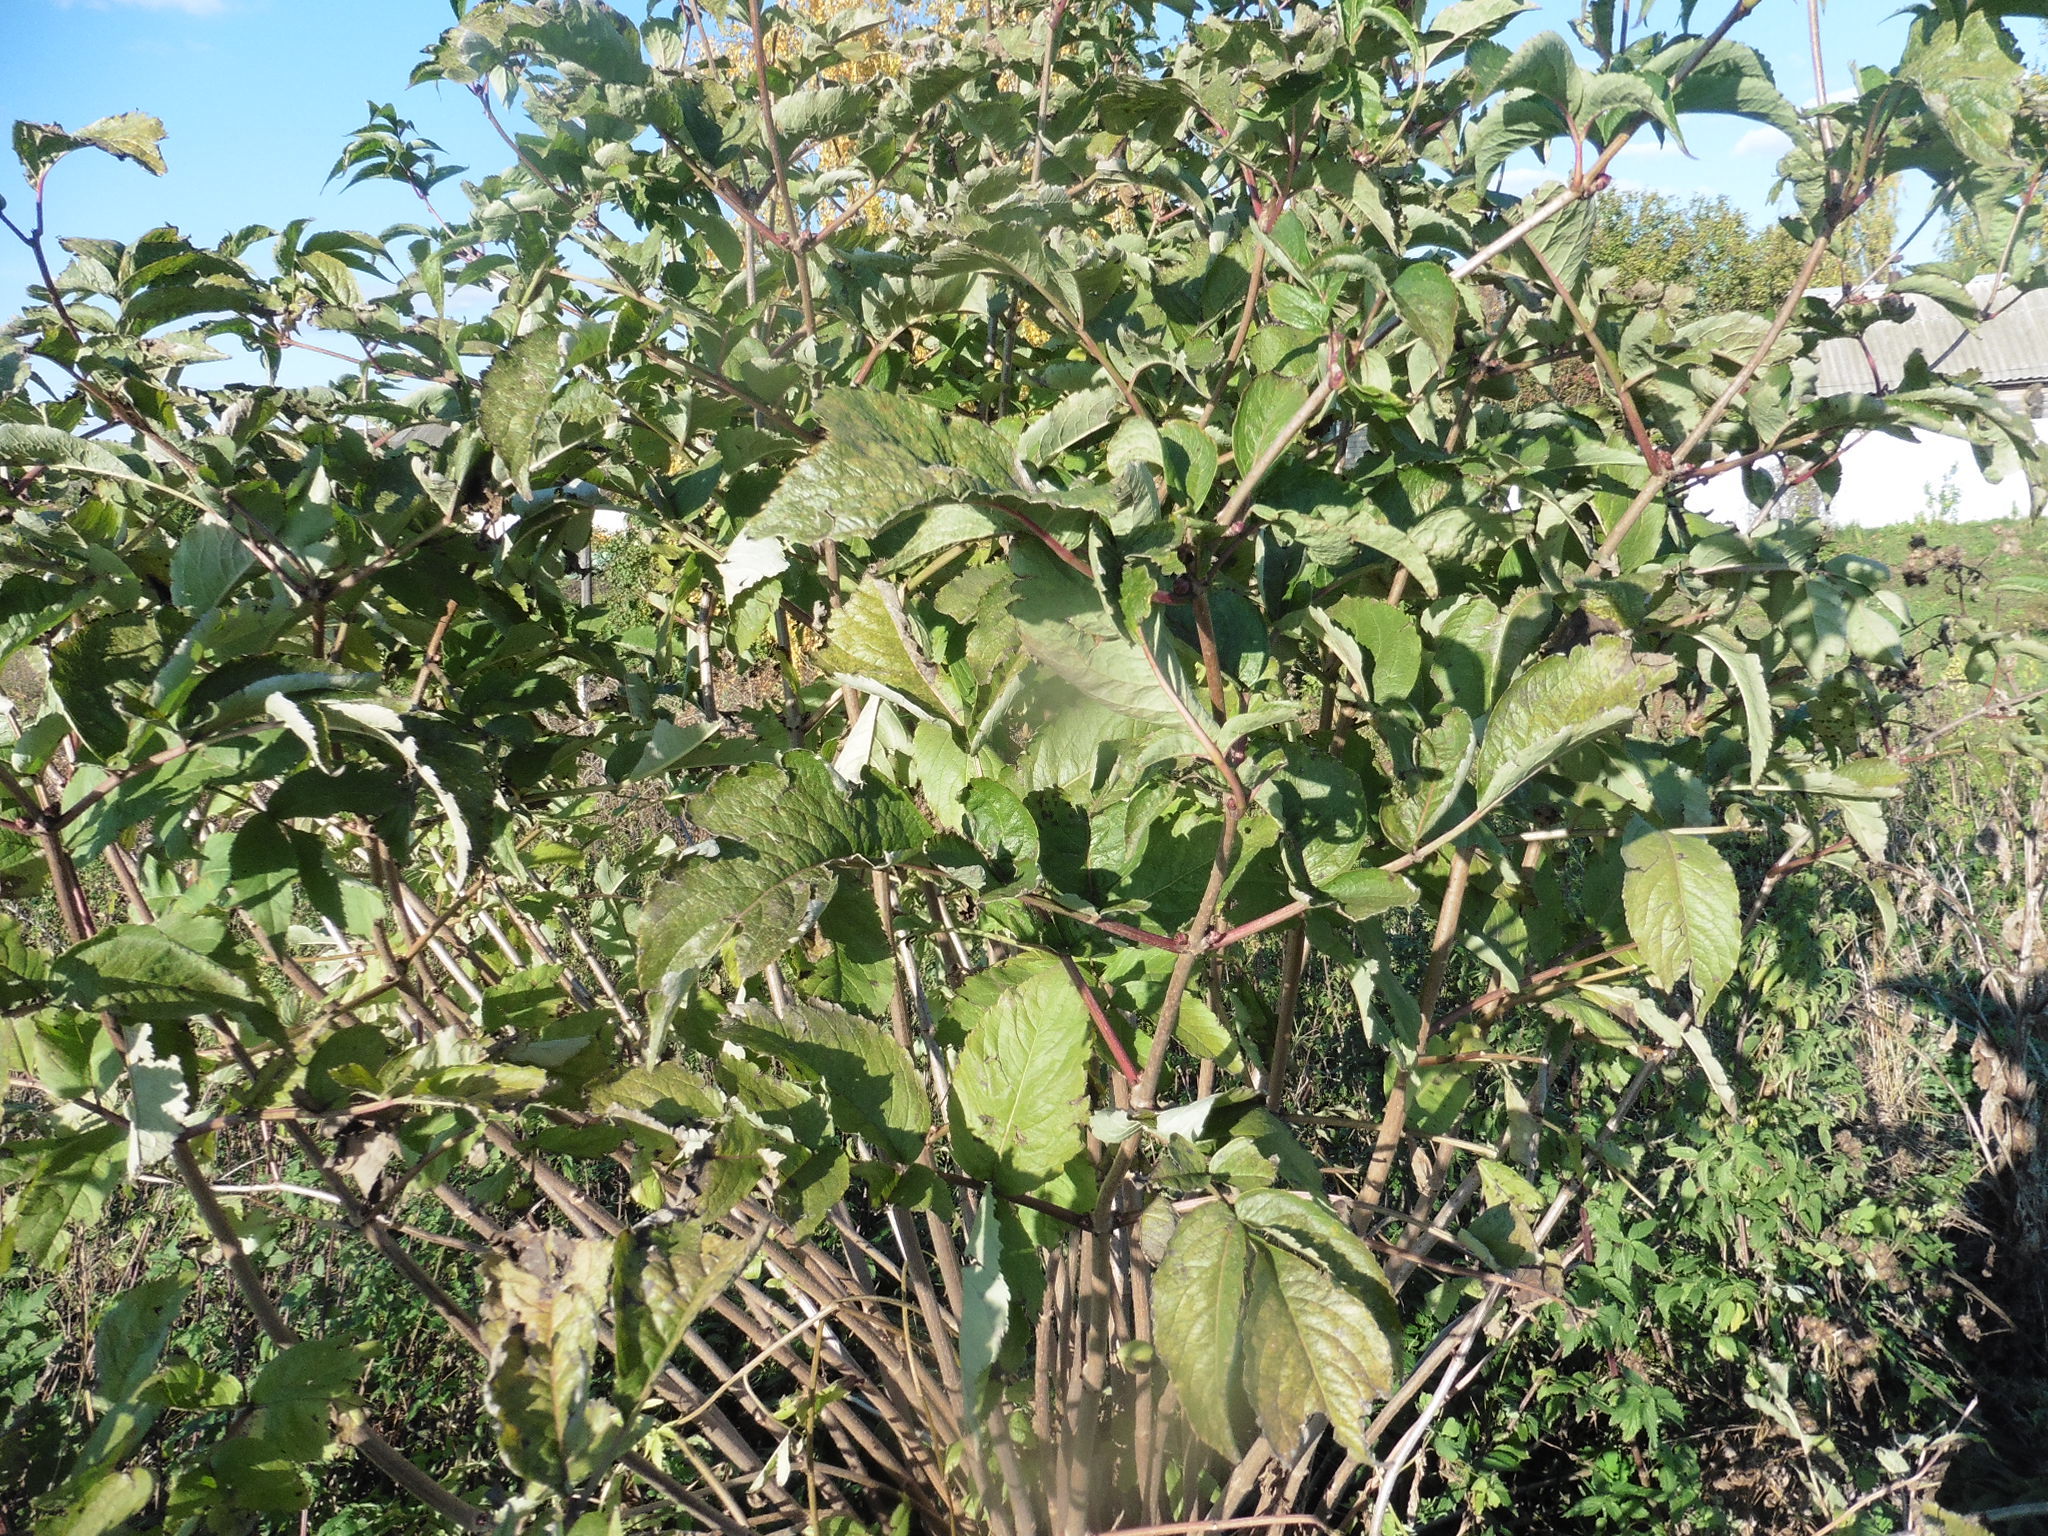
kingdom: Plantae
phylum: Tracheophyta
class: Magnoliopsida
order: Dipsacales
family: Viburnaceae
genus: Sambucus
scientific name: Sambucus racemosa
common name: Red-berried elder
